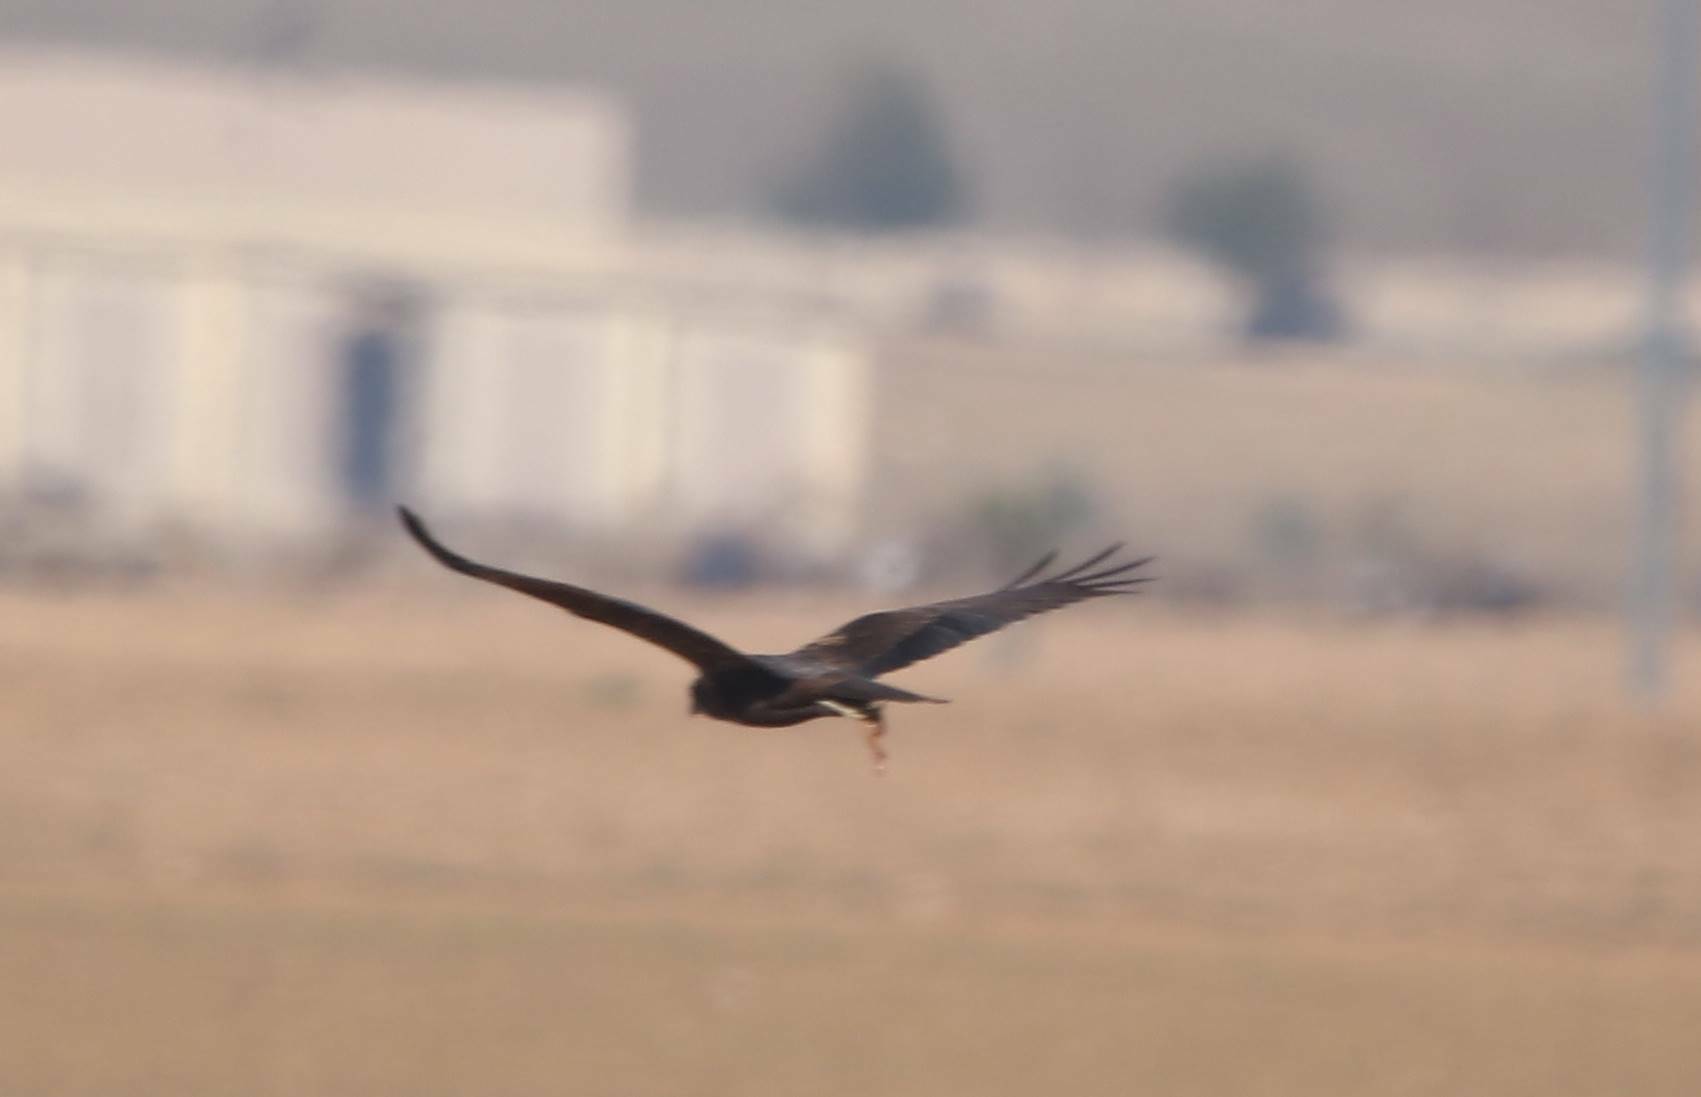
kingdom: Animalia
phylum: Chordata
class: Aves
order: Accipitriformes
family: Accipitridae
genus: Circus
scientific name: Circus aeruginosus
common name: Western marsh harrier
